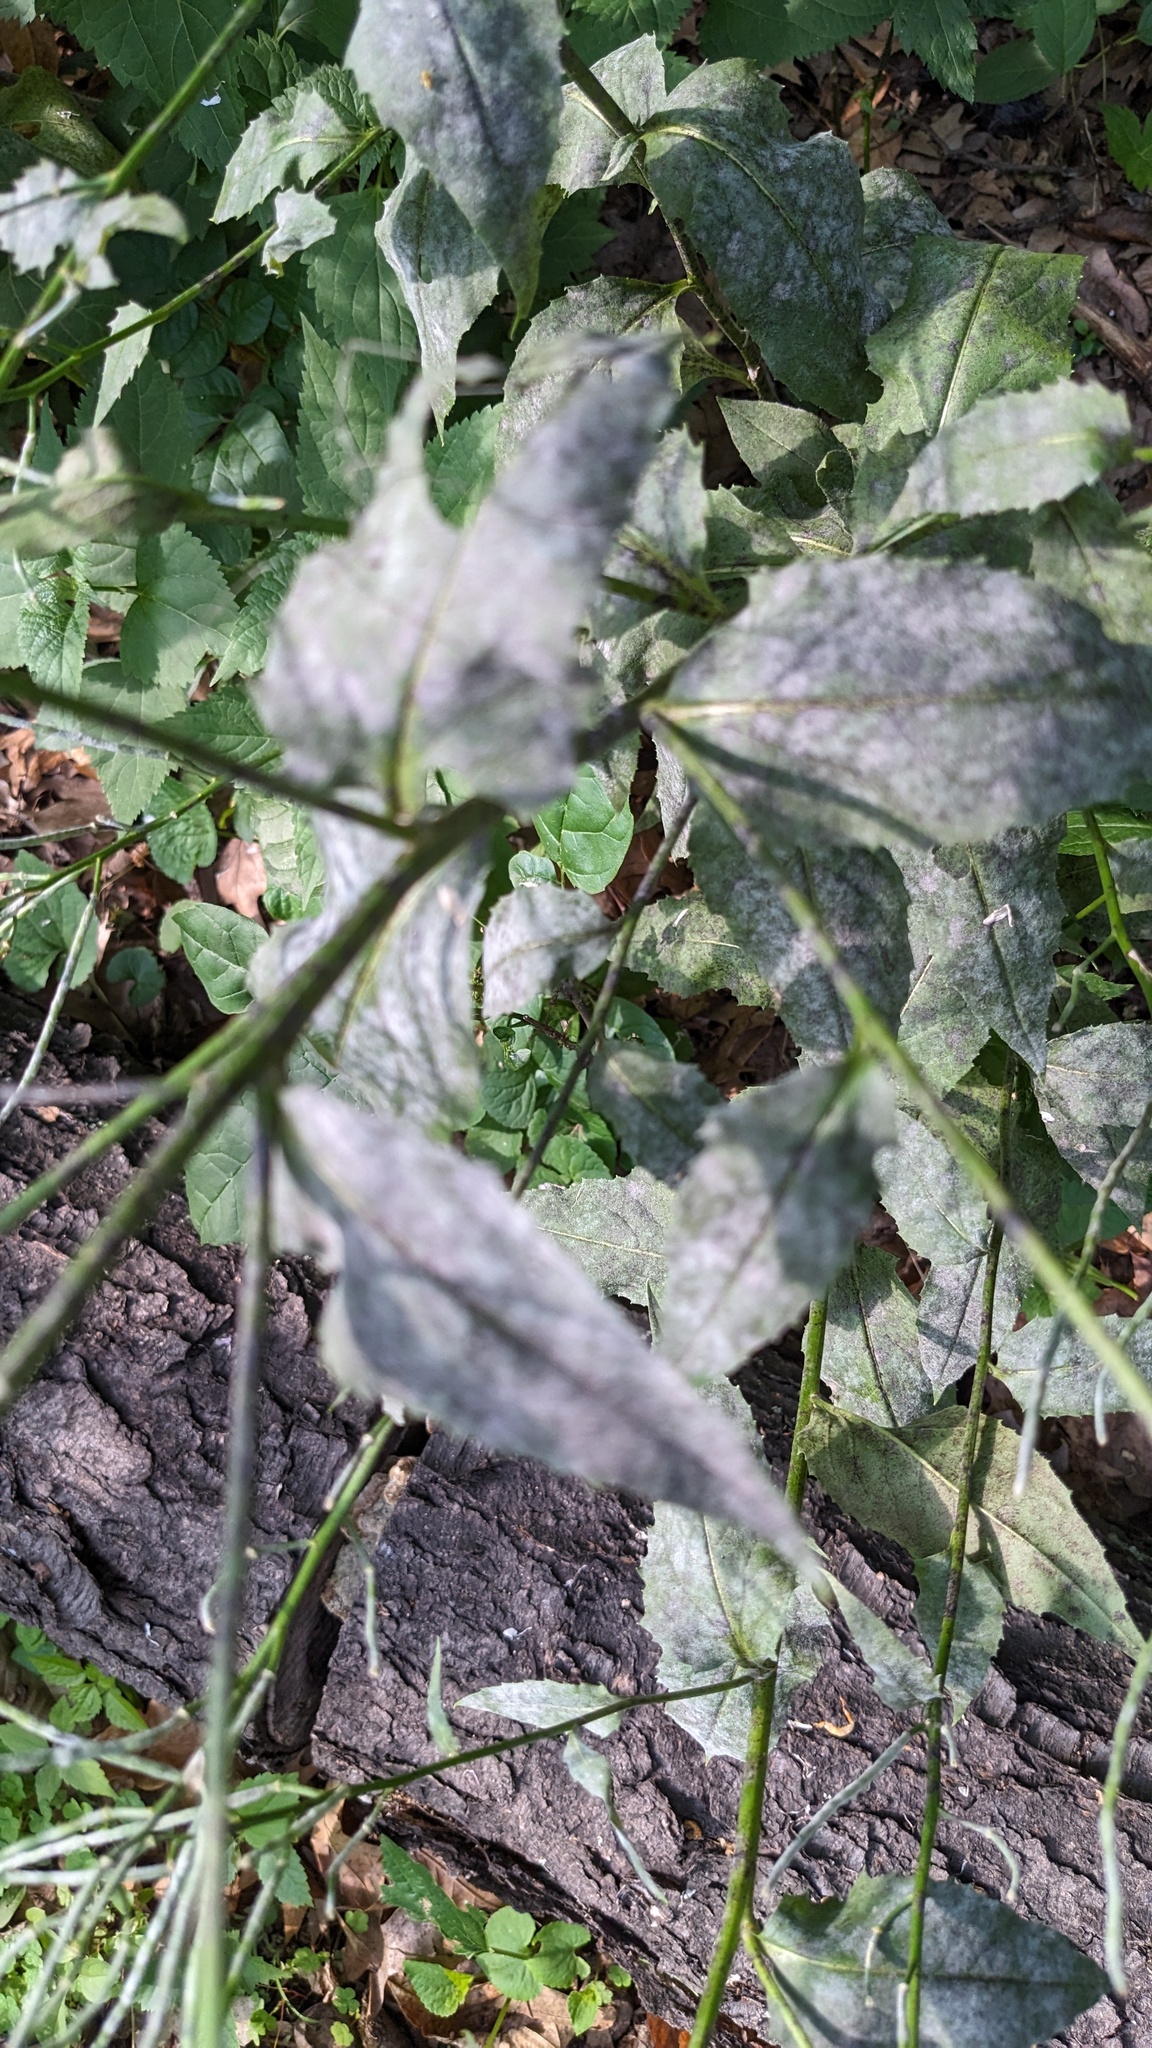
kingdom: Plantae
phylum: Tracheophyta
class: Magnoliopsida
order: Lamiales
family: Verbenaceae
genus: Verbena
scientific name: Verbena urticifolia
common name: Nettle-leaved vervain
